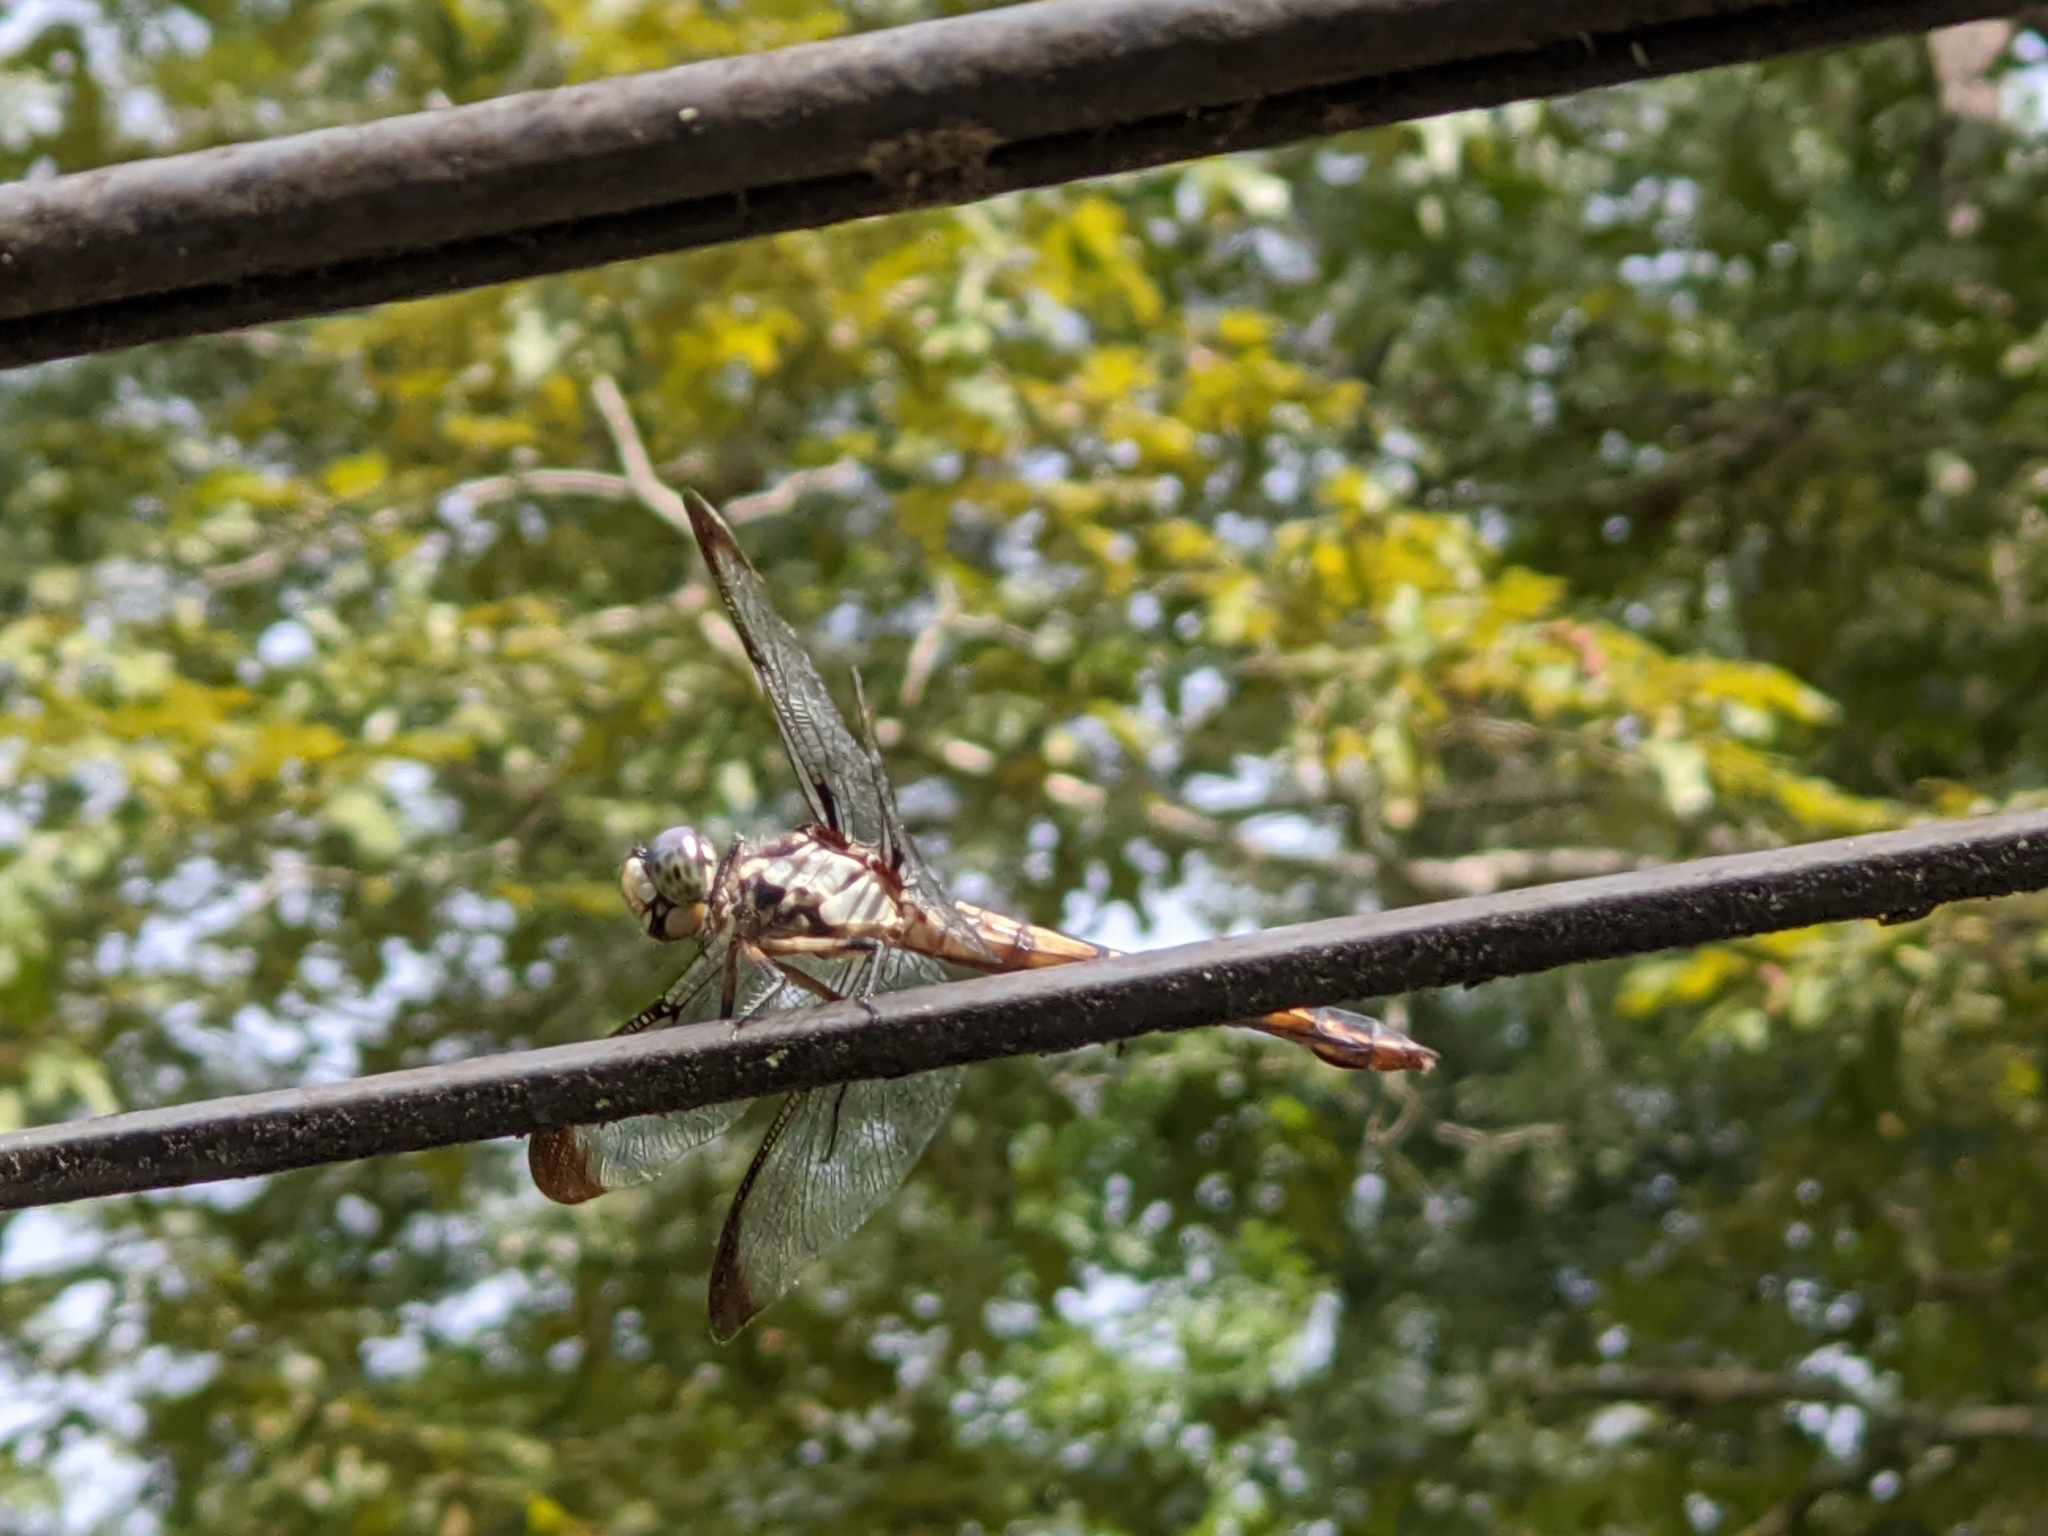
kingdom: Animalia
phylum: Arthropoda
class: Insecta
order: Odonata
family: Libellulidae
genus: Libellula
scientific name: Libellula vibrans
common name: Great blue skimmer
